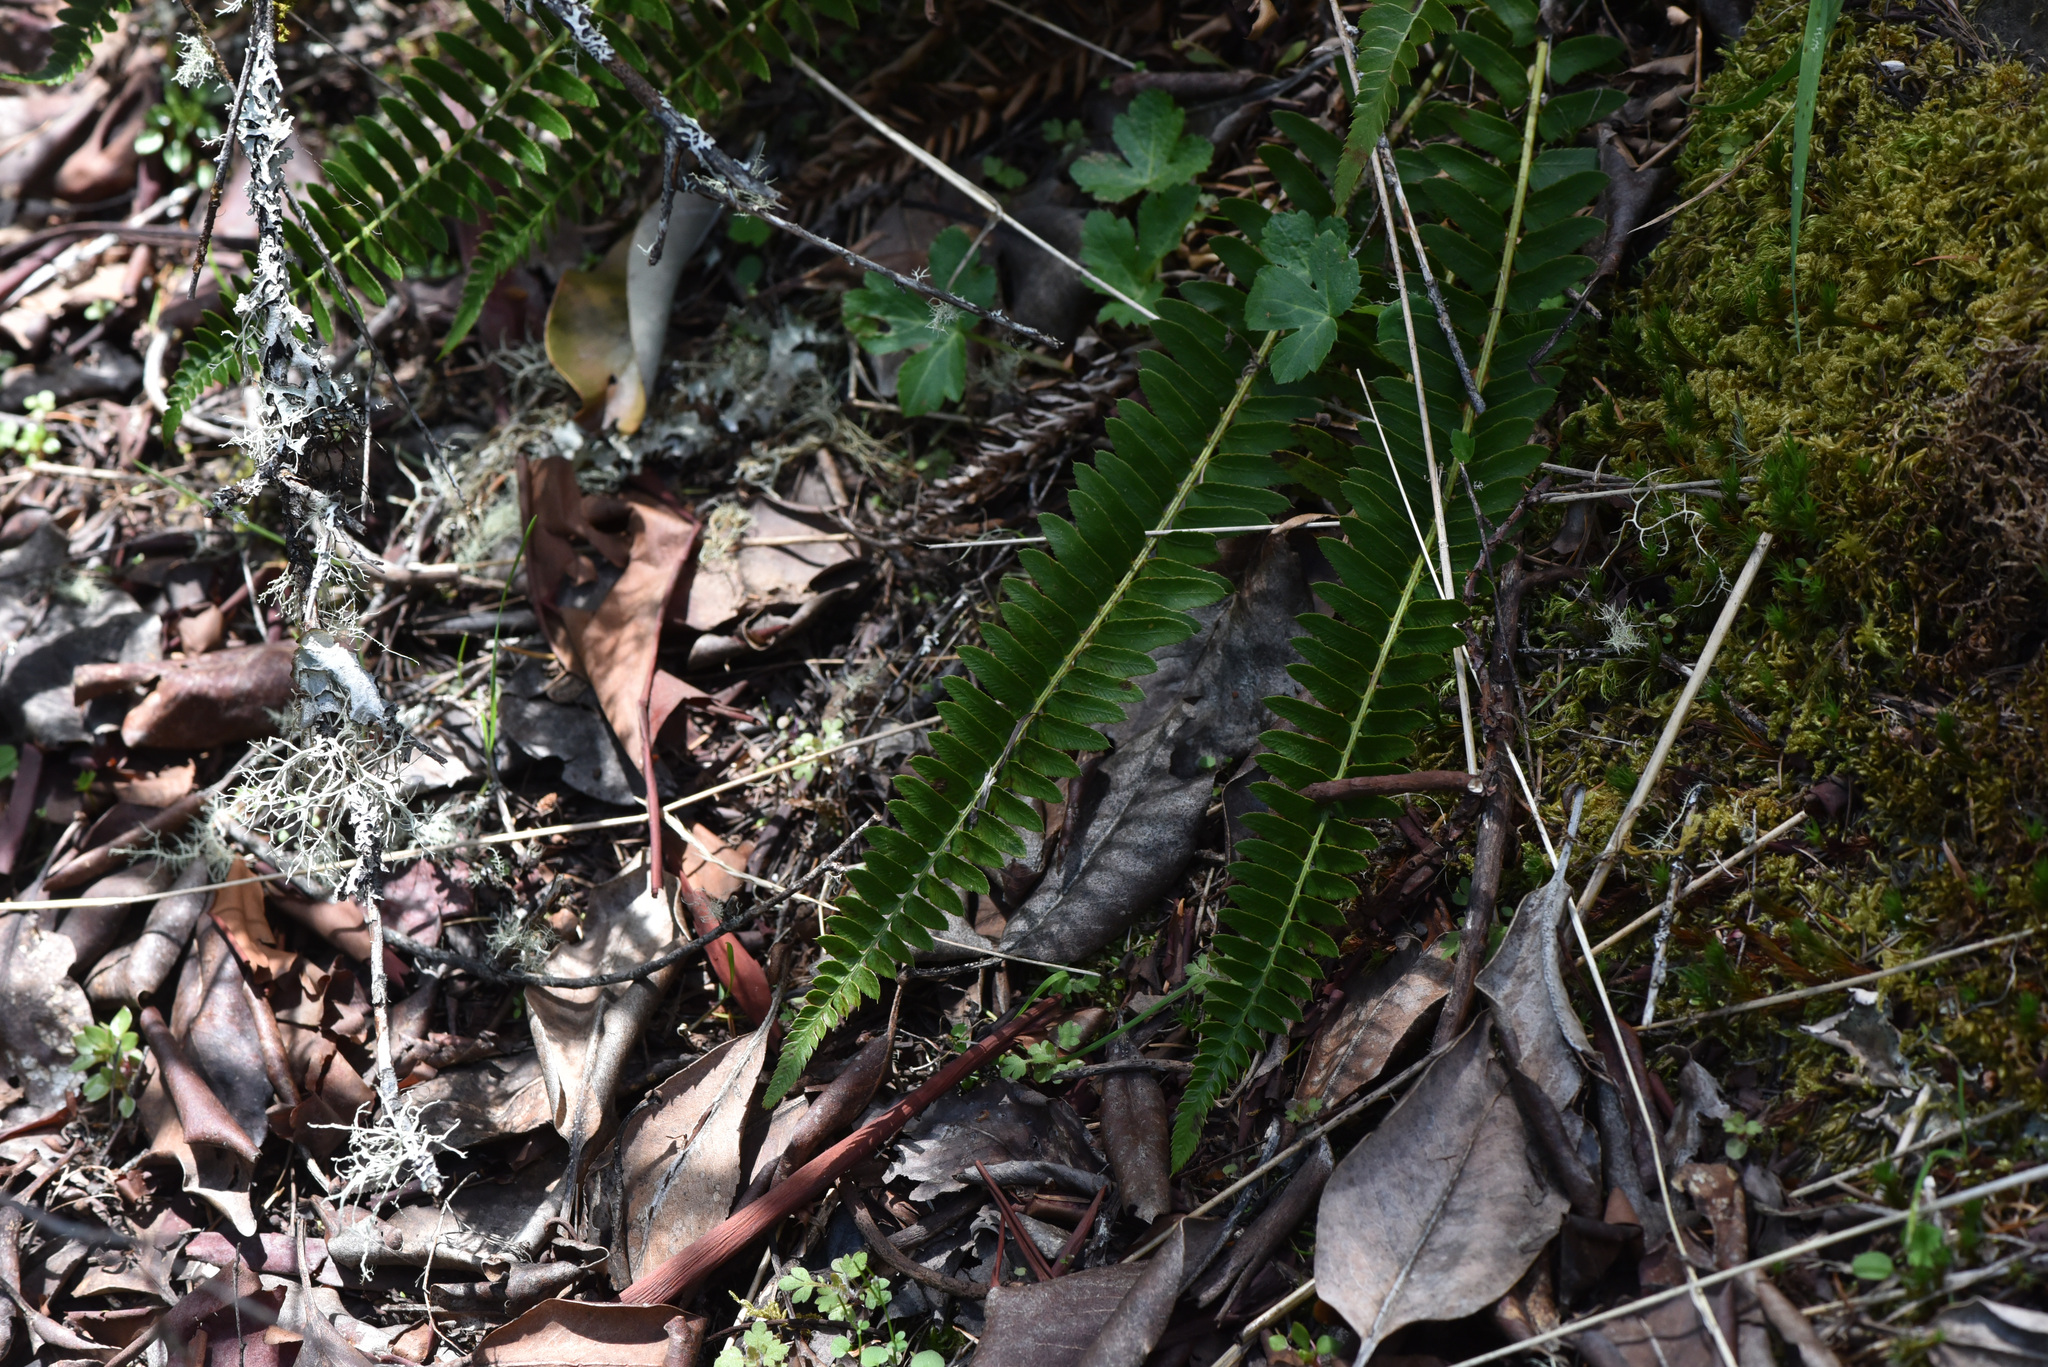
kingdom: Plantae
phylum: Tracheophyta
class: Polypodiopsida
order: Polypodiales
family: Dryopteridaceae
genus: Polystichum
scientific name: Polystichum imbricans
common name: Dwarf western sword fern
